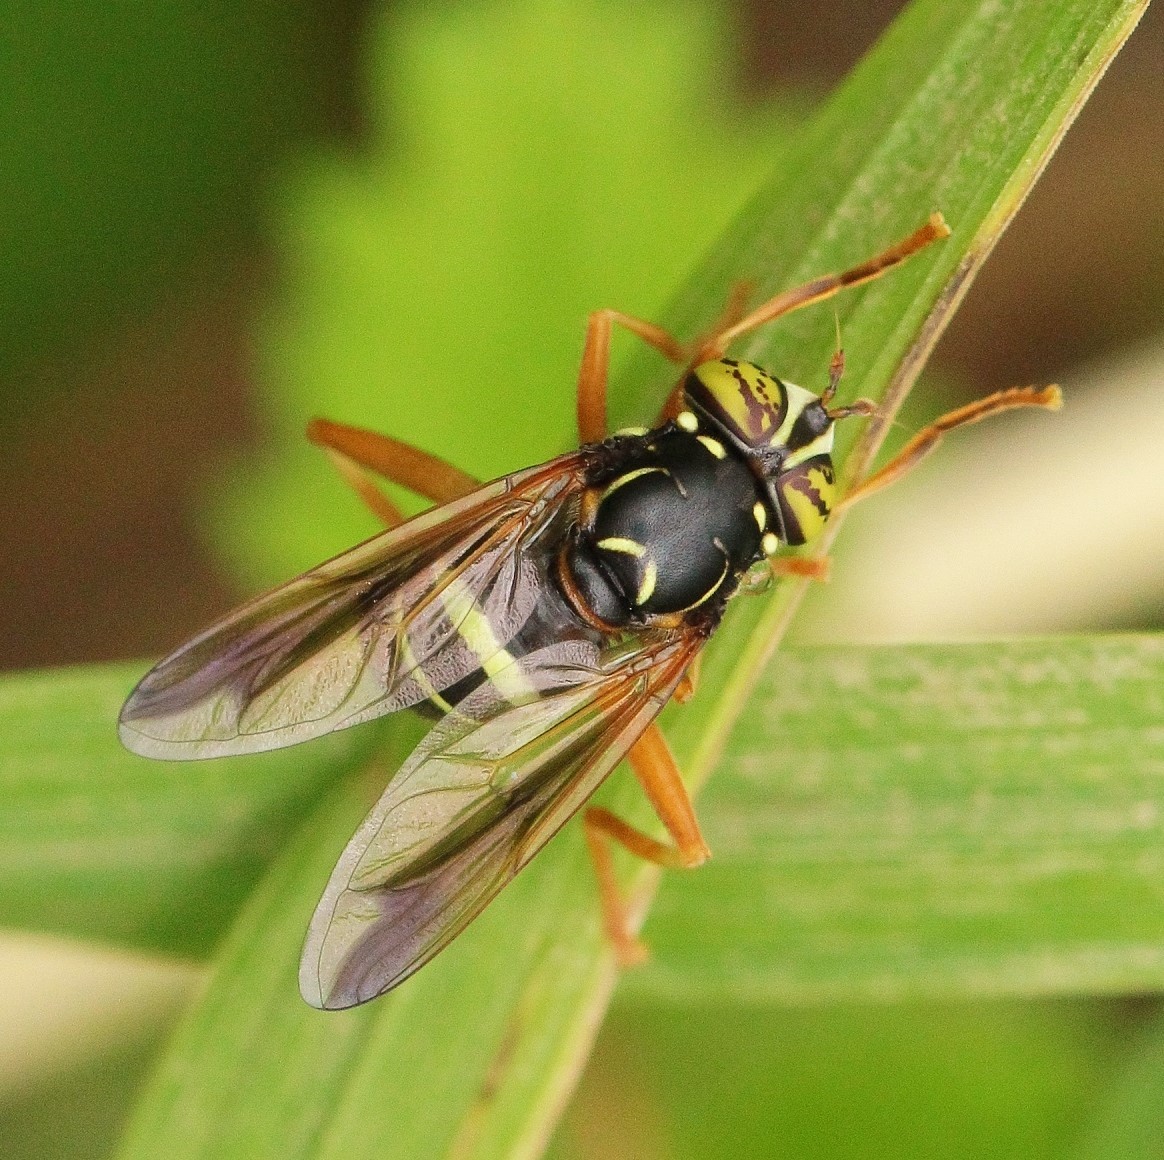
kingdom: Animalia
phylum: Arthropoda
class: Insecta
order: Diptera
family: Syrphidae
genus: Spilomyia
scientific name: Spilomyia diophthalma
